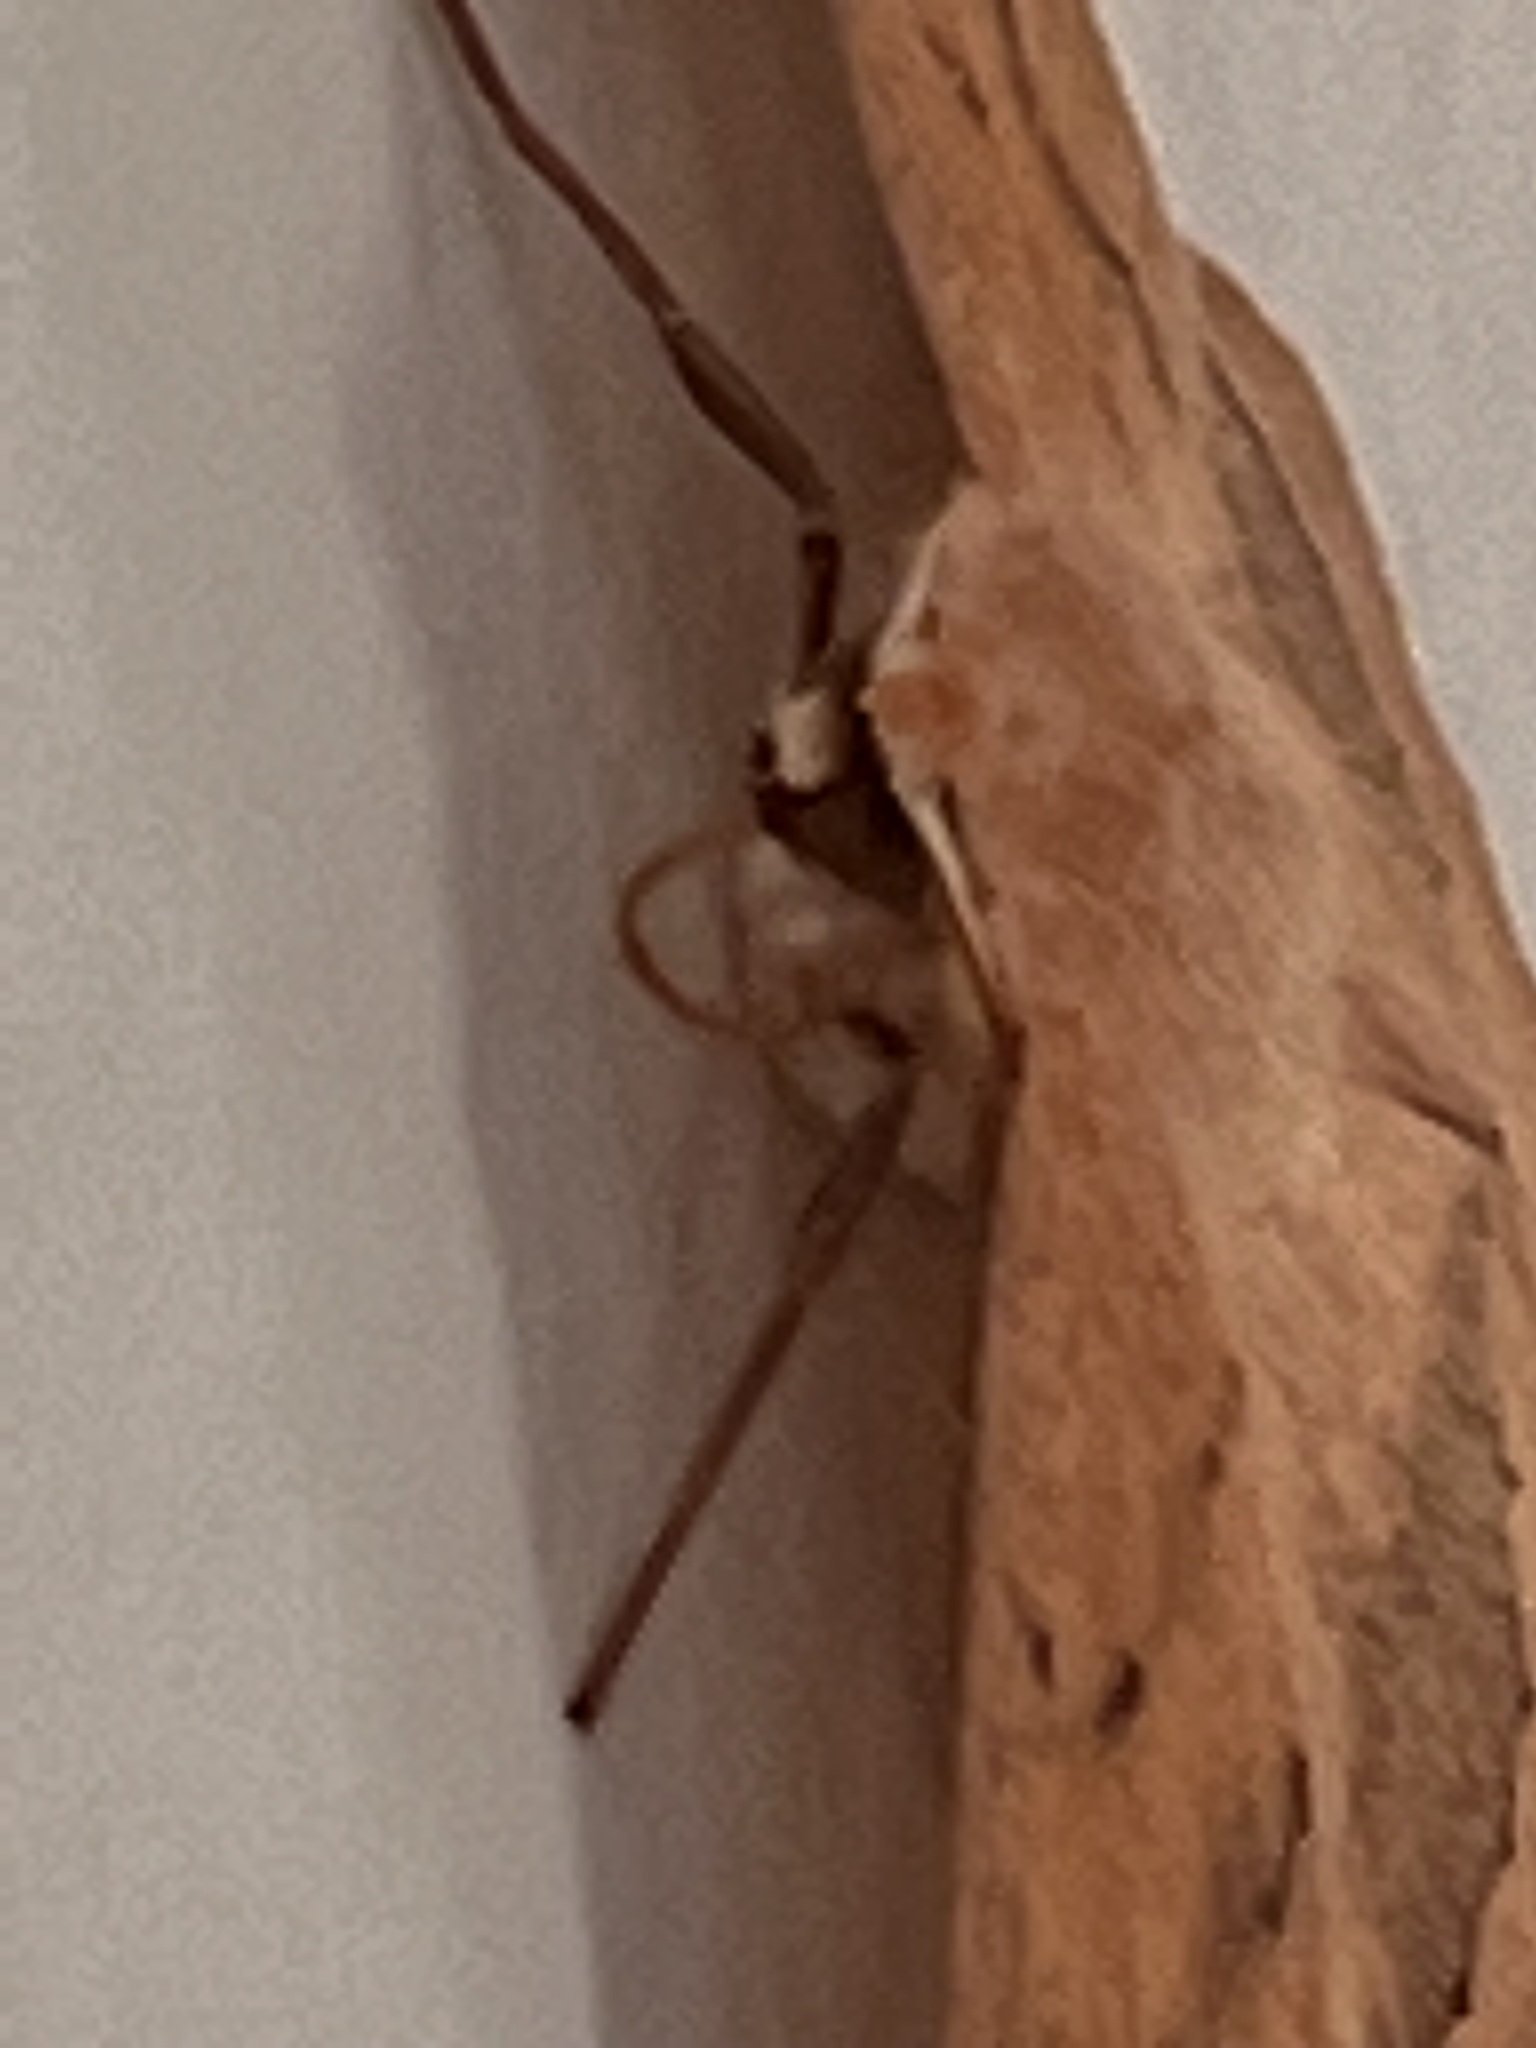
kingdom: Animalia
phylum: Arthropoda
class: Insecta
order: Lepidoptera
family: Geometridae
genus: Sabulodes
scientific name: Sabulodes aegrotata
